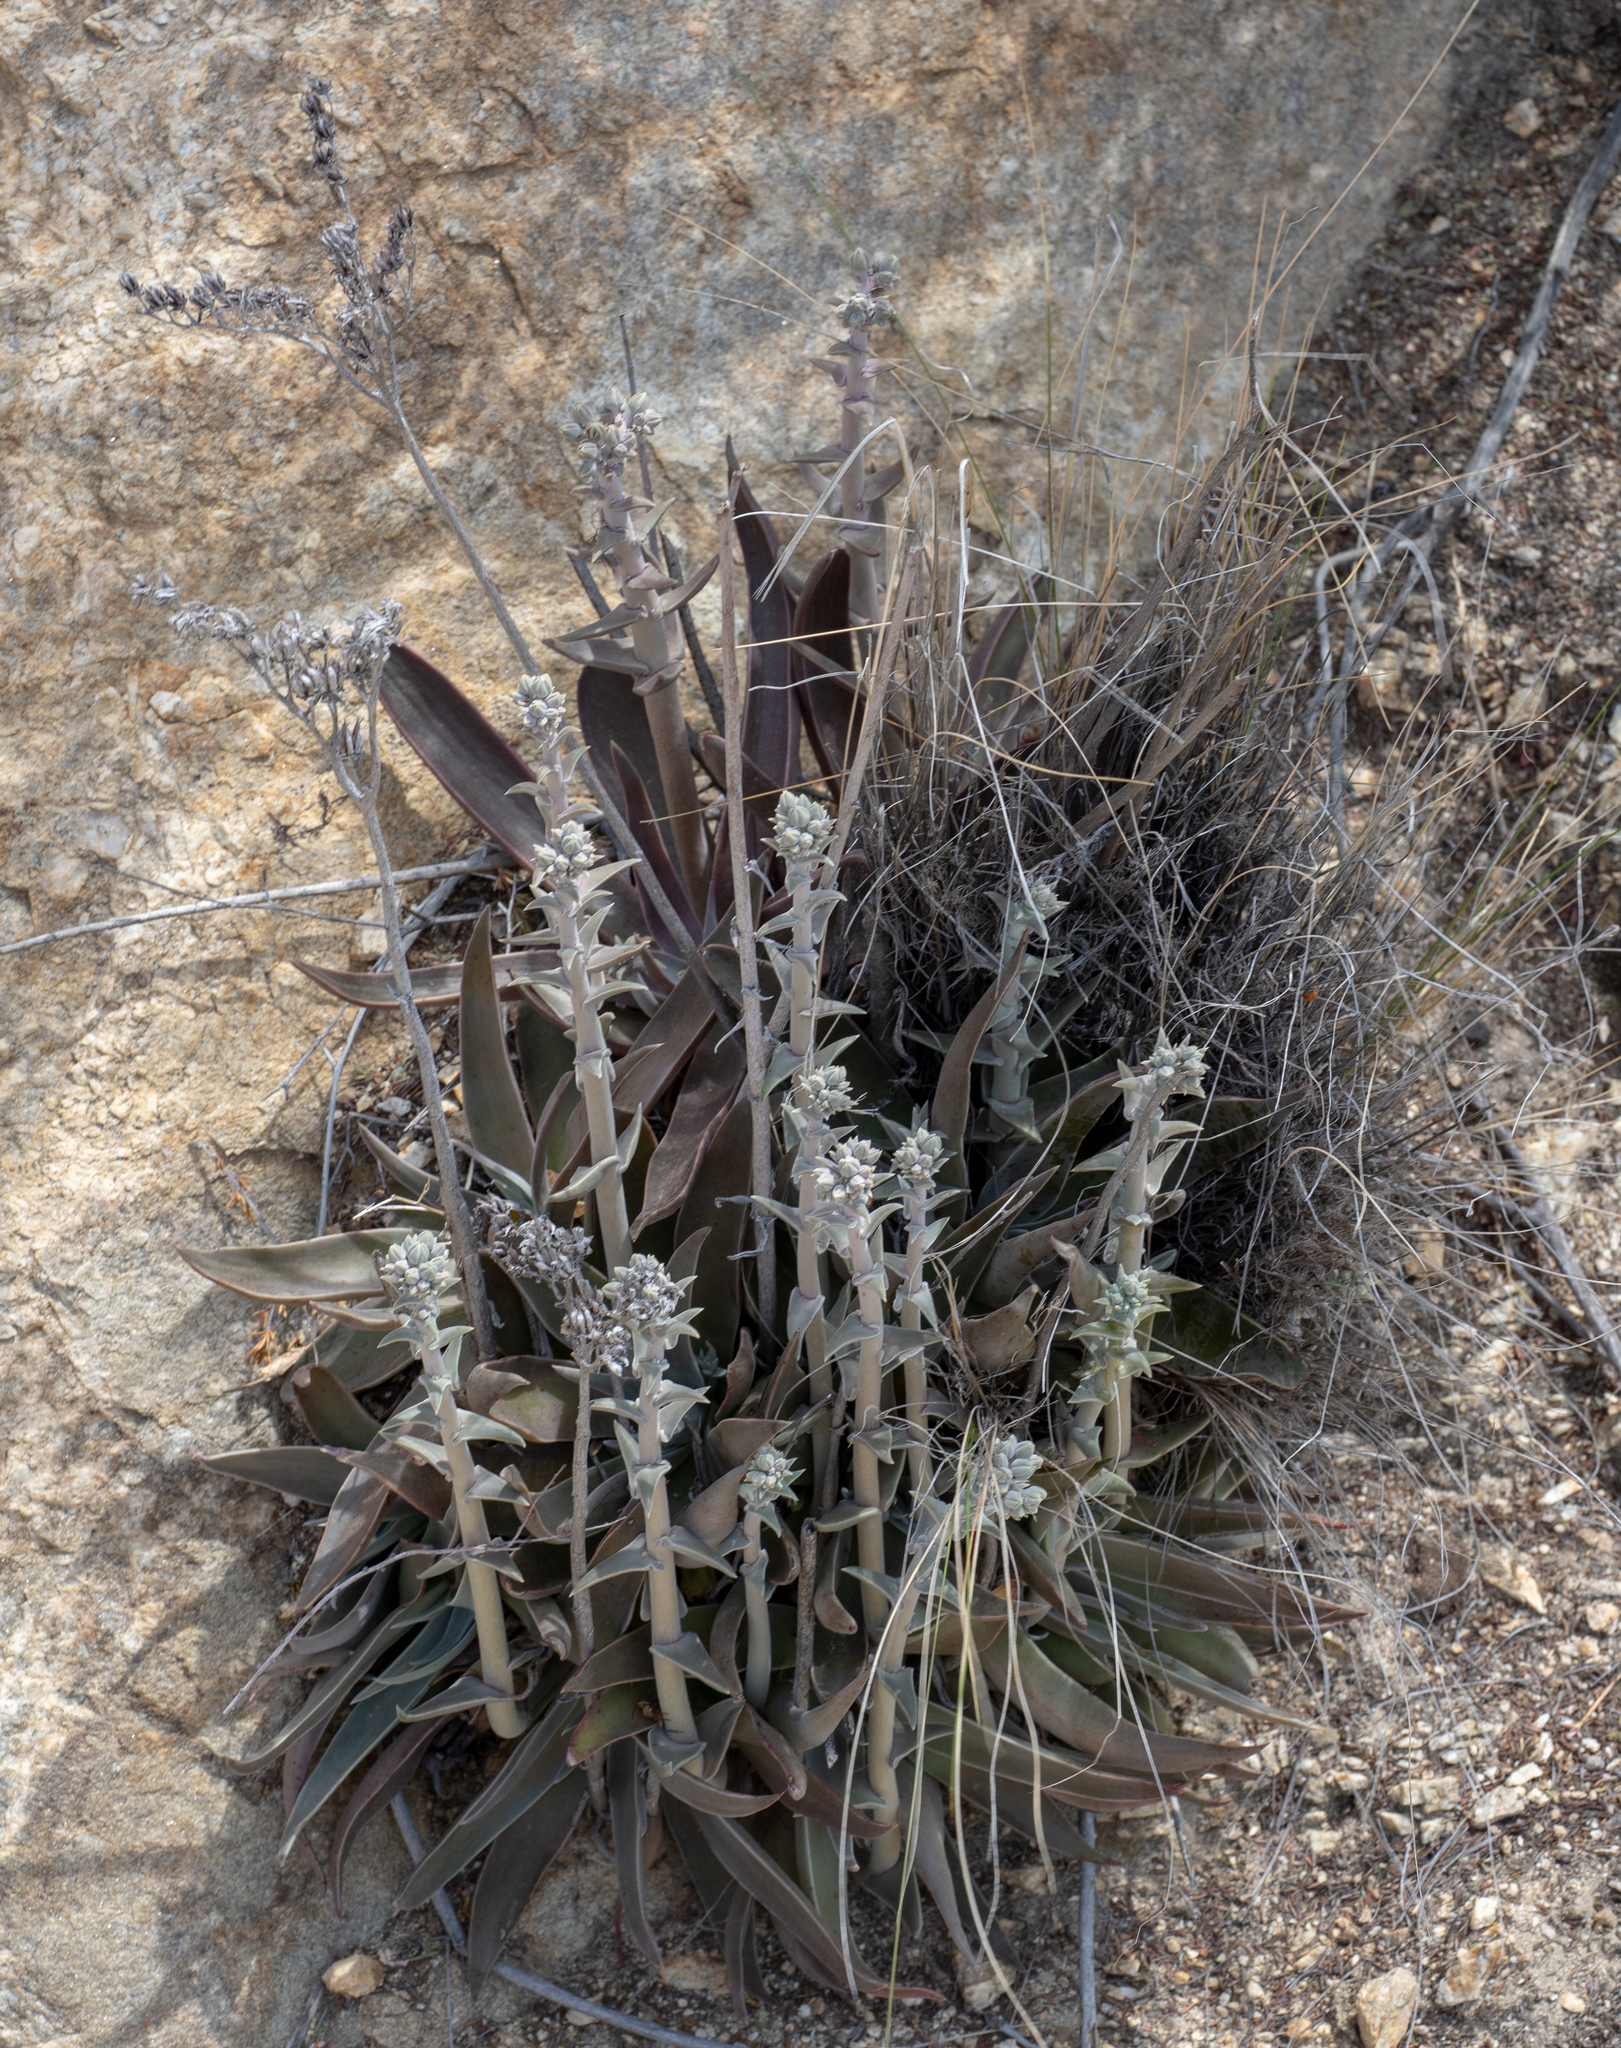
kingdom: Plantae
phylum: Tracheophyta
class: Magnoliopsida
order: Saxifragales
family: Crassulaceae
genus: Dudleya
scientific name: Dudleya lanceolata
